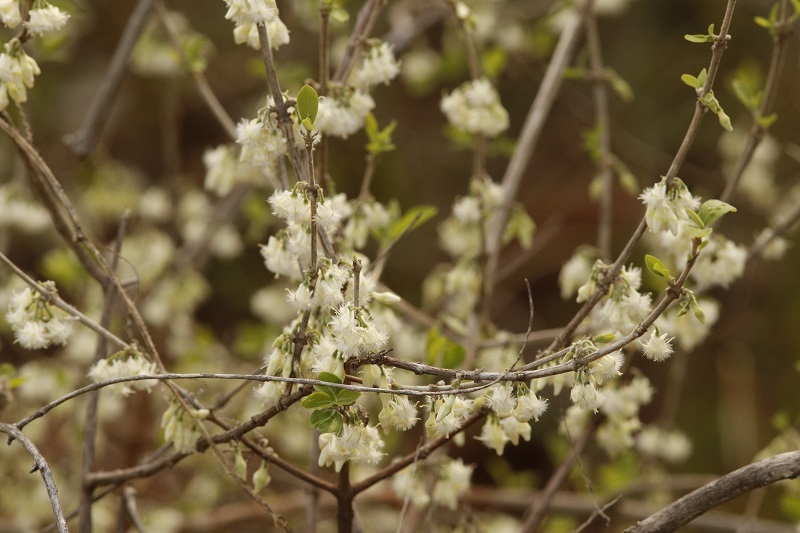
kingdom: Plantae
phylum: Tracheophyta
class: Magnoliopsida
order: Gentianales
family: Rubiaceae
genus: Empogona
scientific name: Empogona kirkii
